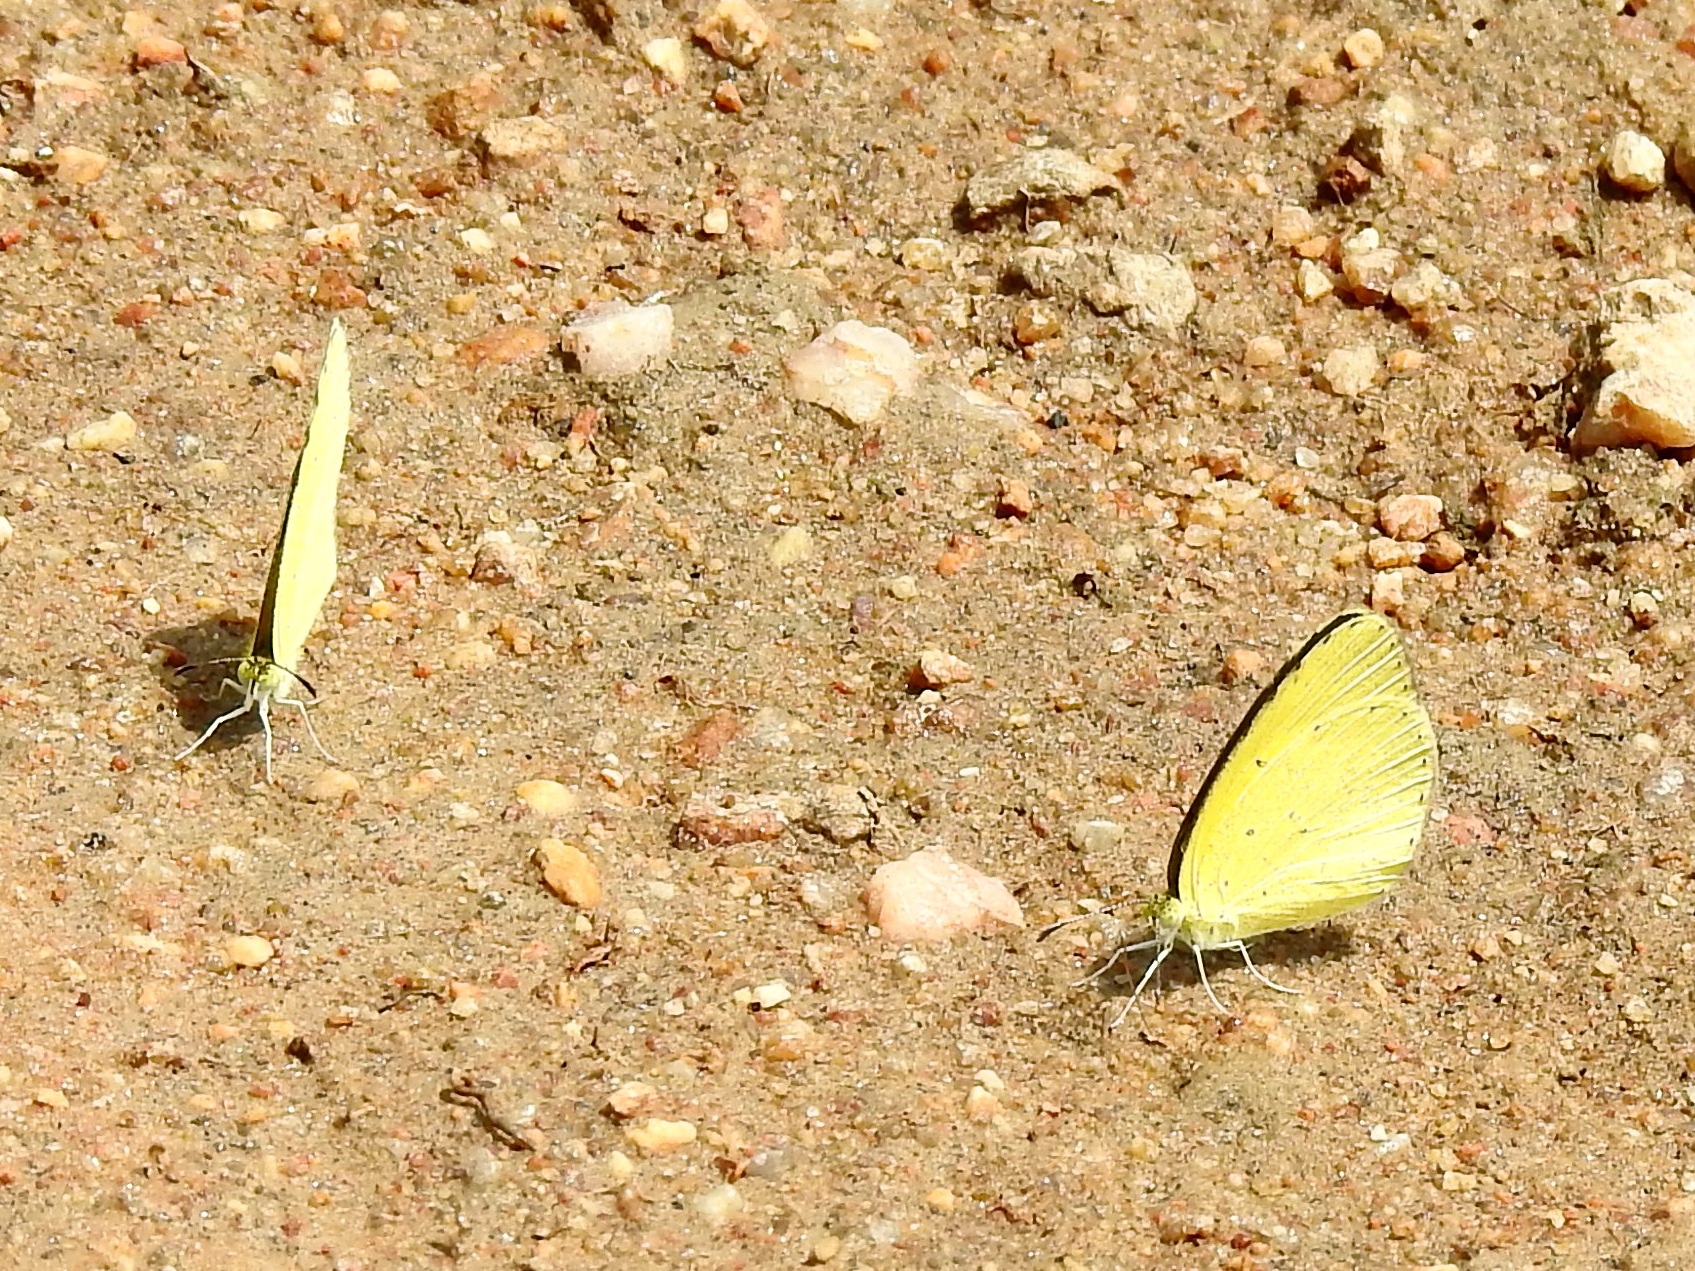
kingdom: Animalia
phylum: Arthropoda
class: Insecta
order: Lepidoptera
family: Pieridae
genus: Eurema
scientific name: Eurema brigitta
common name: Small grass yellow
